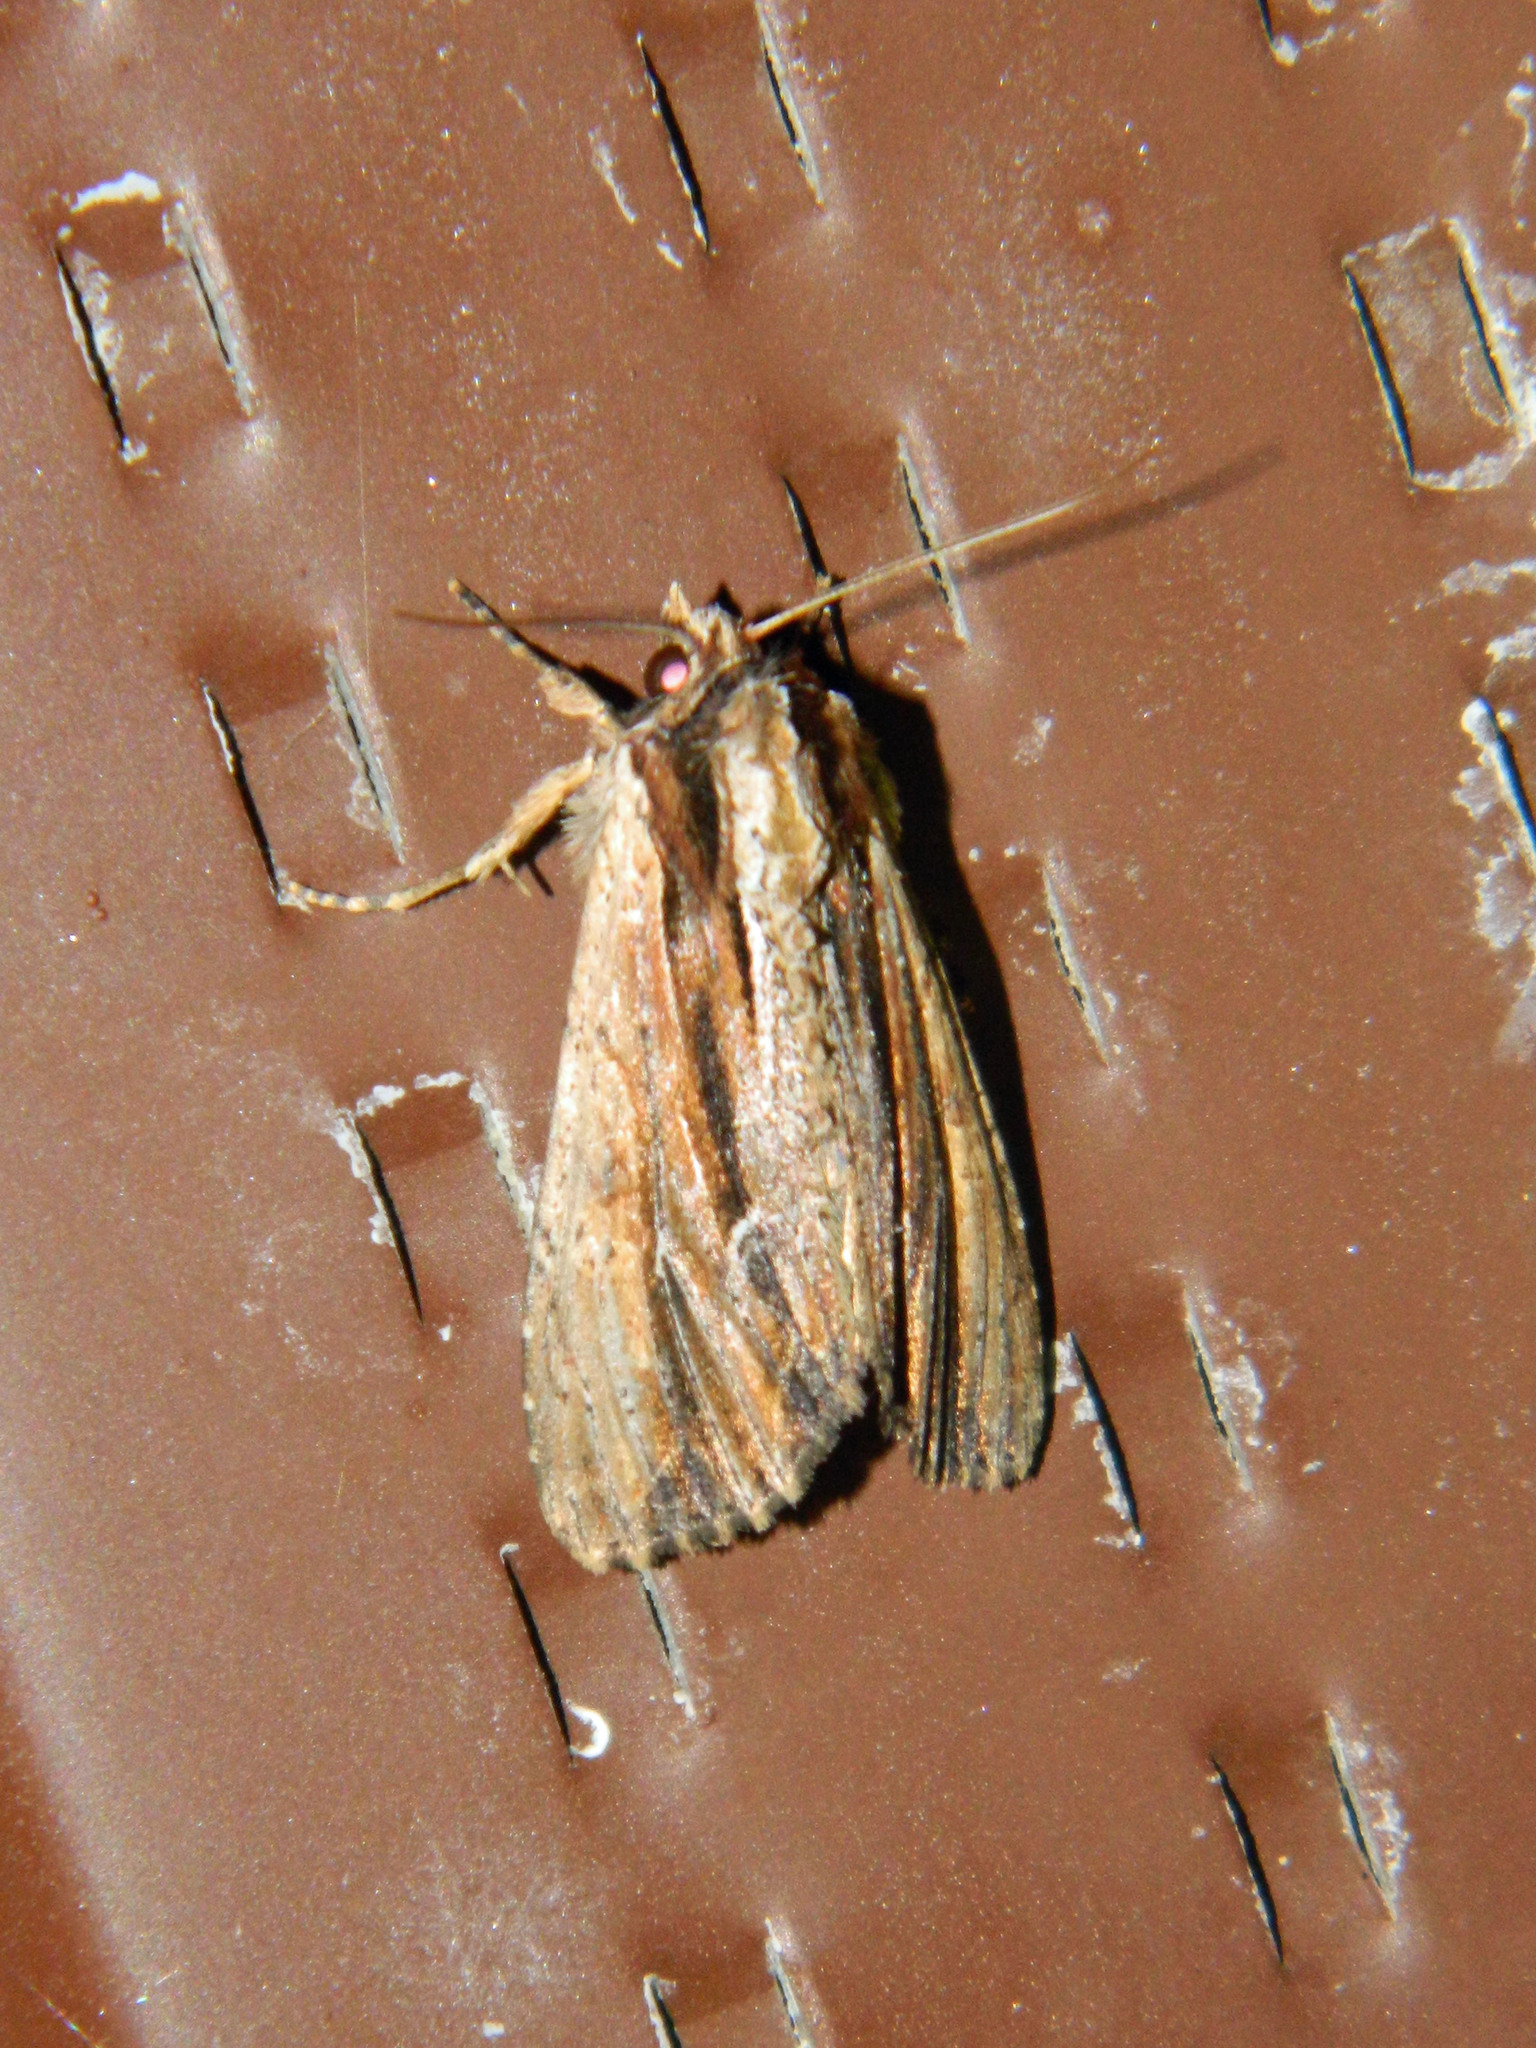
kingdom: Animalia
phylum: Arthropoda
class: Insecta
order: Lepidoptera
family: Noctuidae
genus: Apamea
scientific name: Apamea verbascoides
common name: Mullein apamea moth
